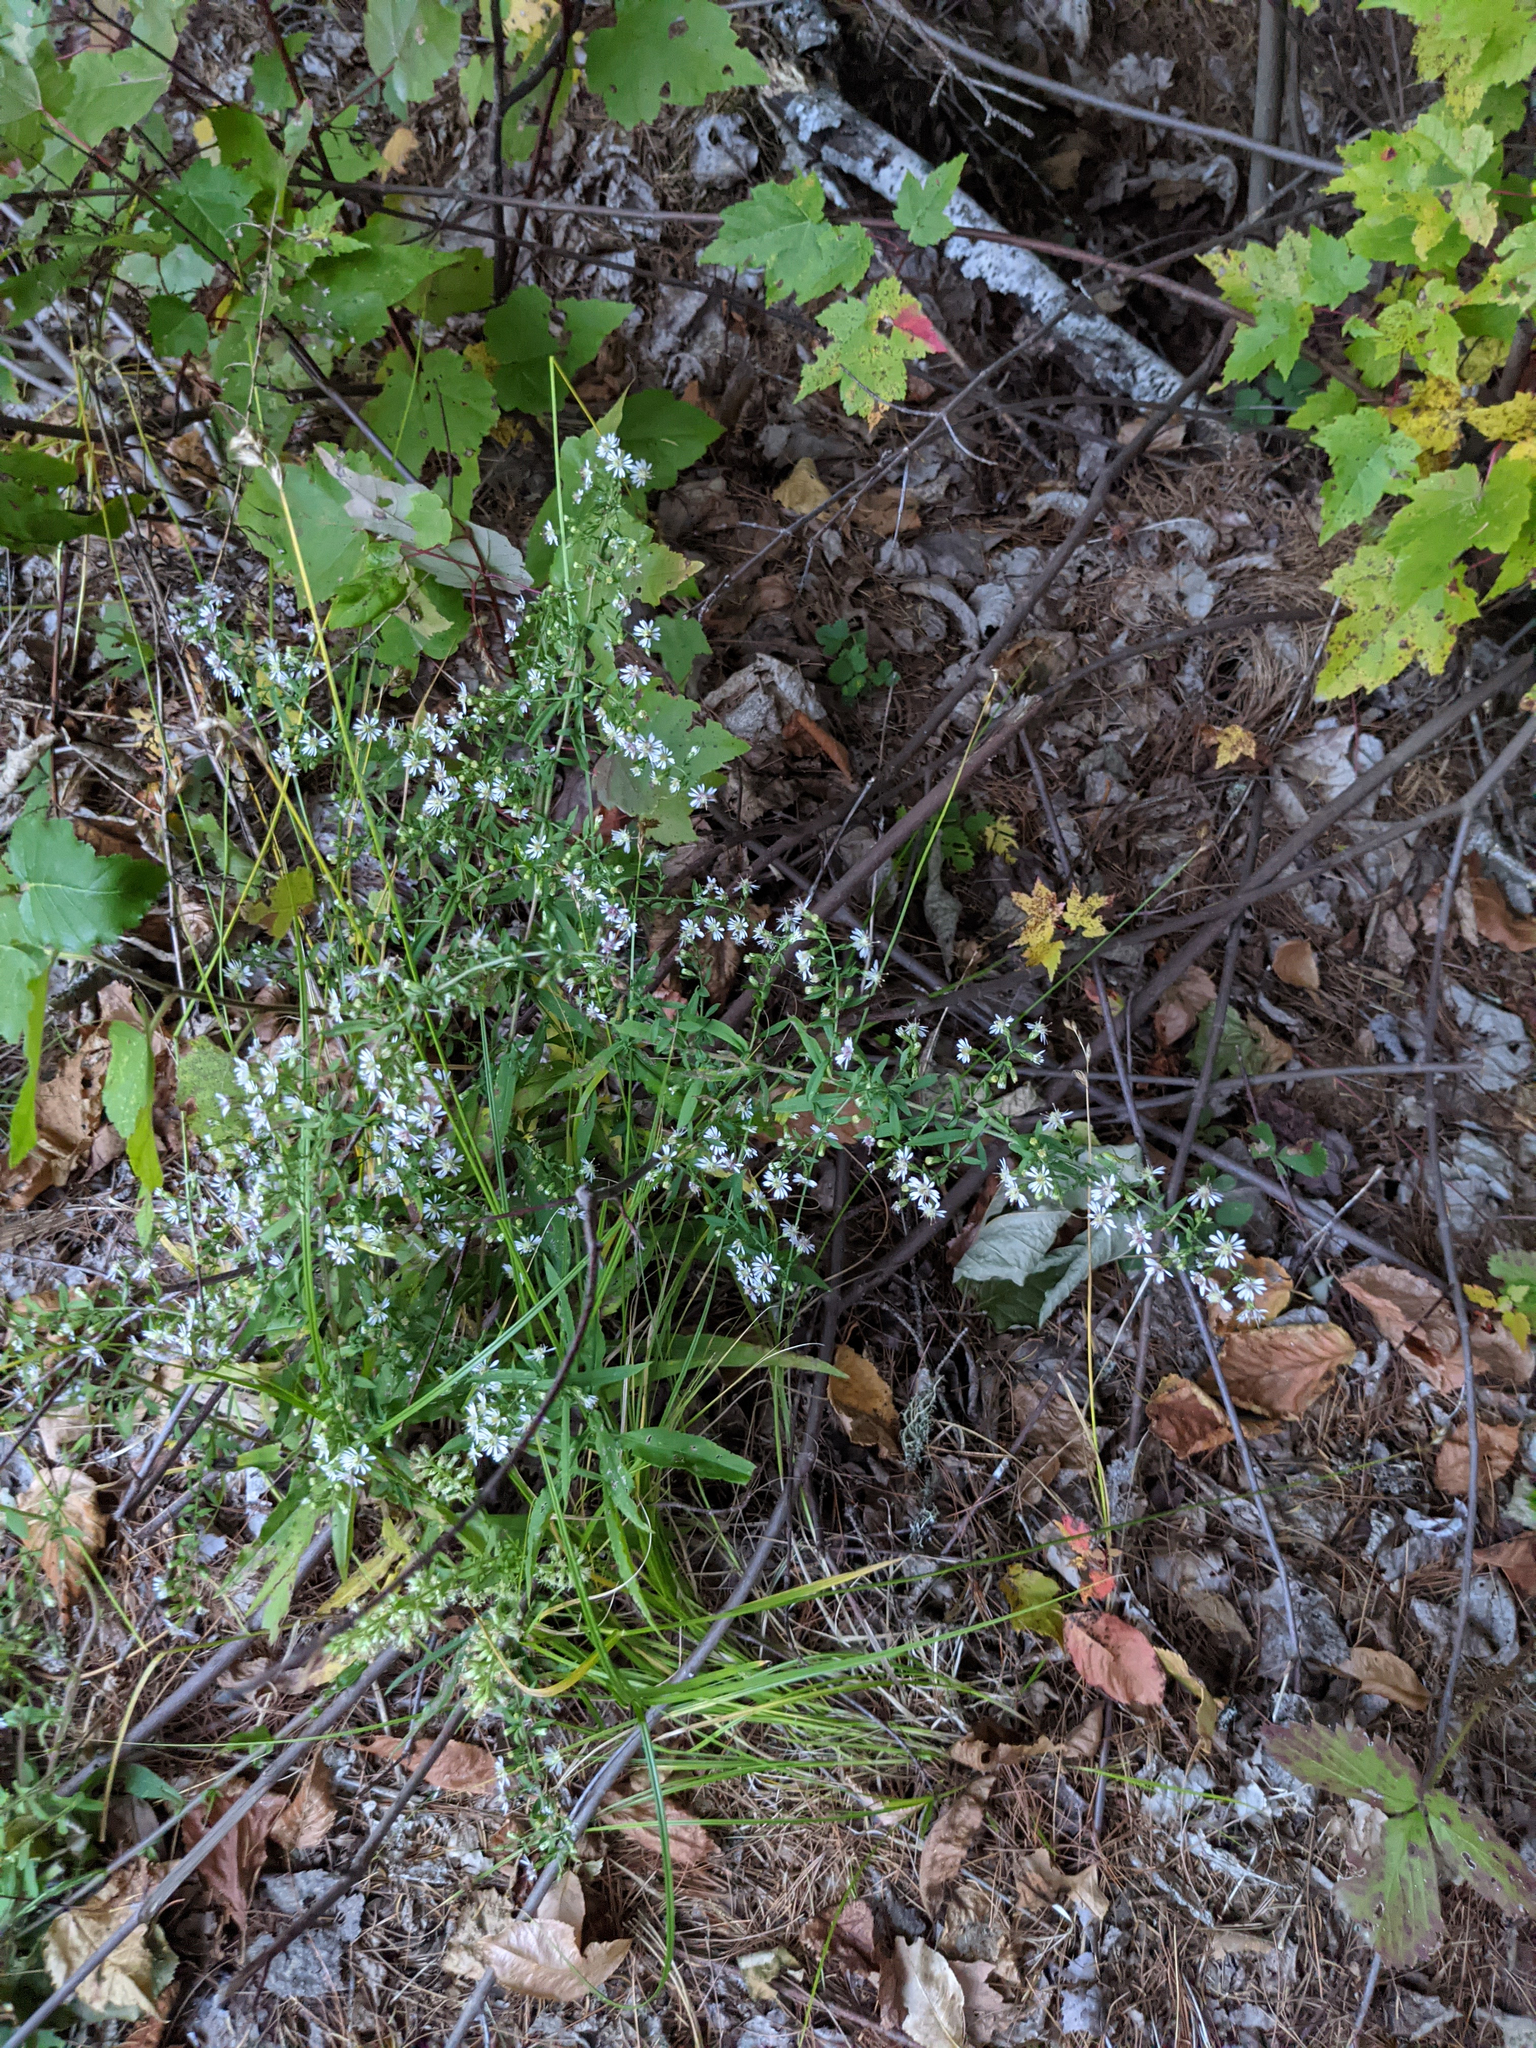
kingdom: Plantae
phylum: Tracheophyta
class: Magnoliopsida
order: Asterales
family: Asteraceae
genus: Symphyotrichum
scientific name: Symphyotrichum lateriflorum
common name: Calico aster
